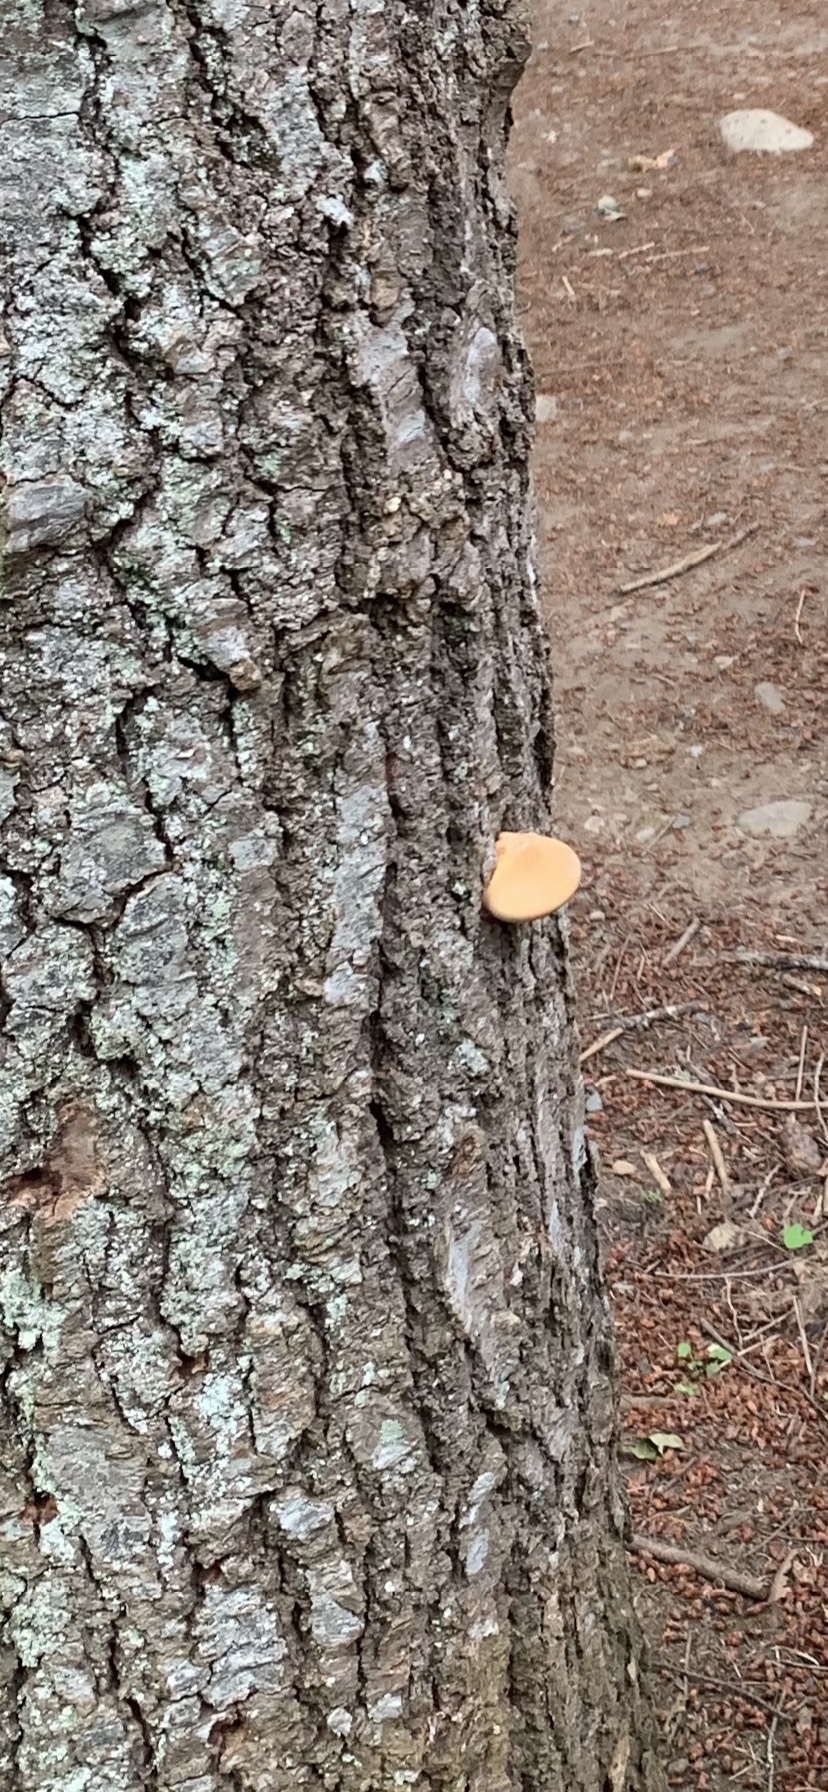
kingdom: Fungi
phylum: Basidiomycota
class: Agaricomycetes
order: Polyporales
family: Polyporaceae
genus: Cryptoporus
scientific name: Cryptoporus volvatus
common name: Veiled polypore
